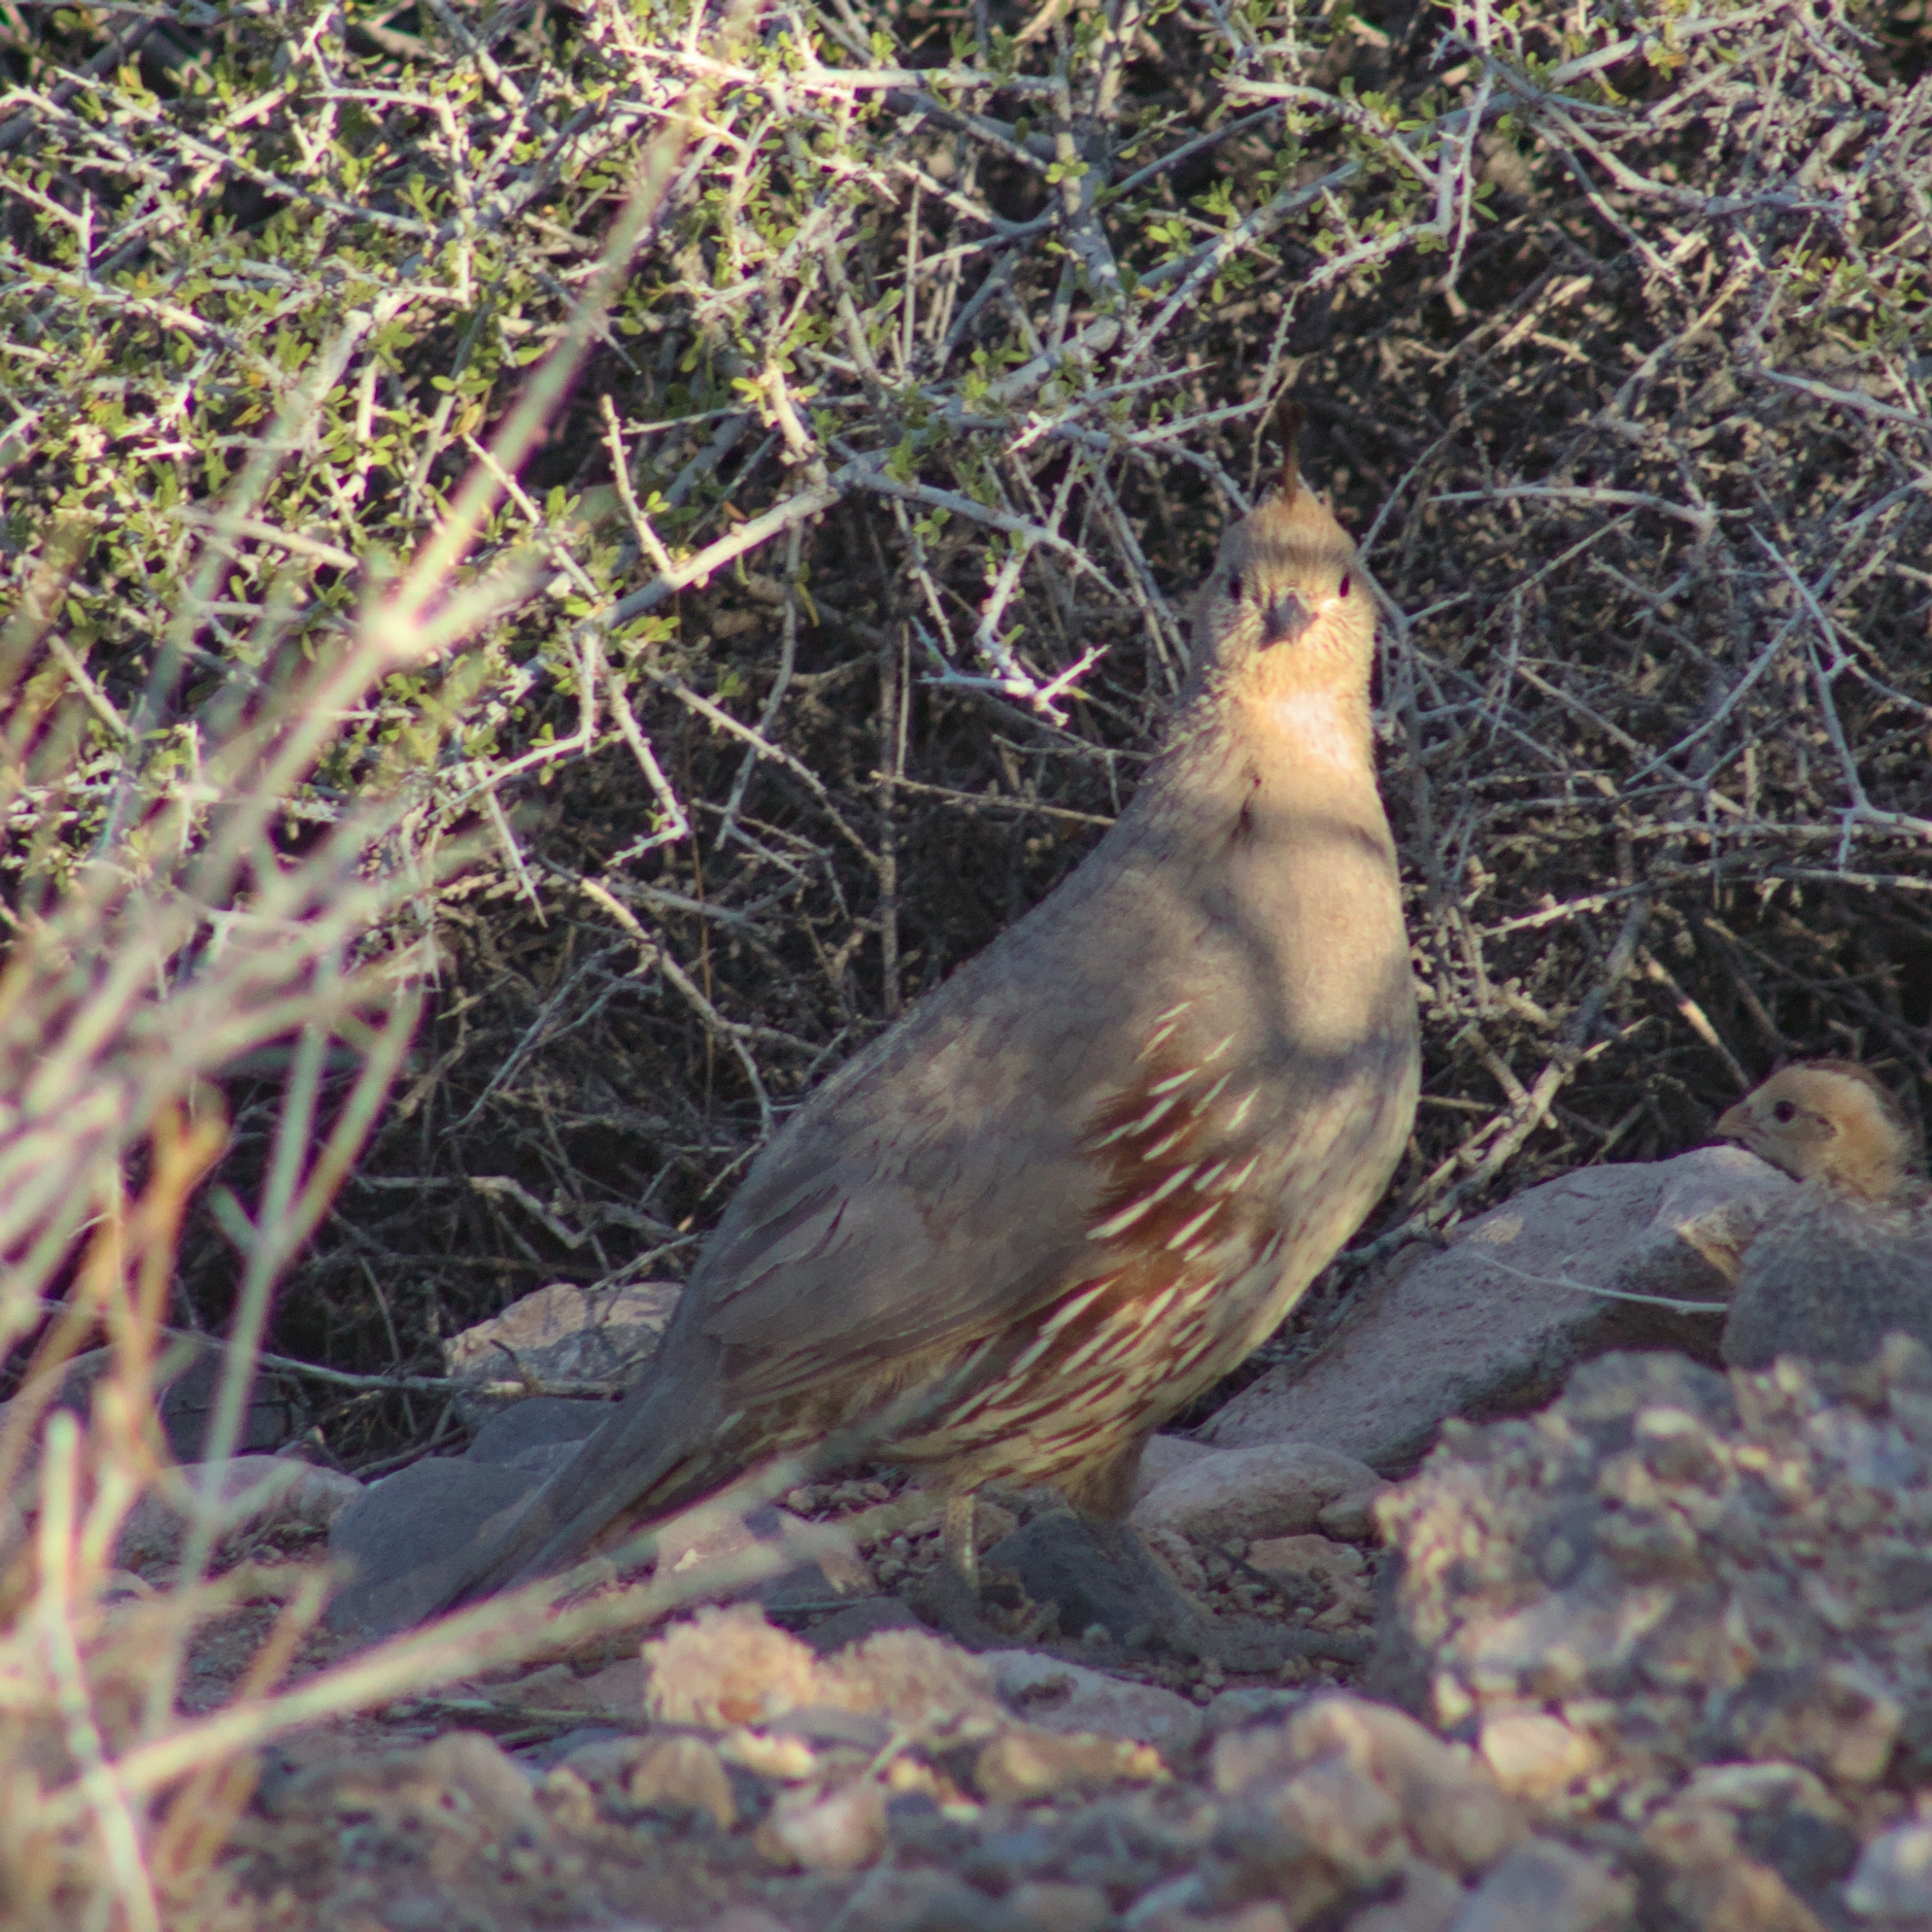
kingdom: Animalia
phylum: Chordata
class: Aves
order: Galliformes
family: Odontophoridae
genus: Callipepla
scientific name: Callipepla gambelii
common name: Gambel's quail
